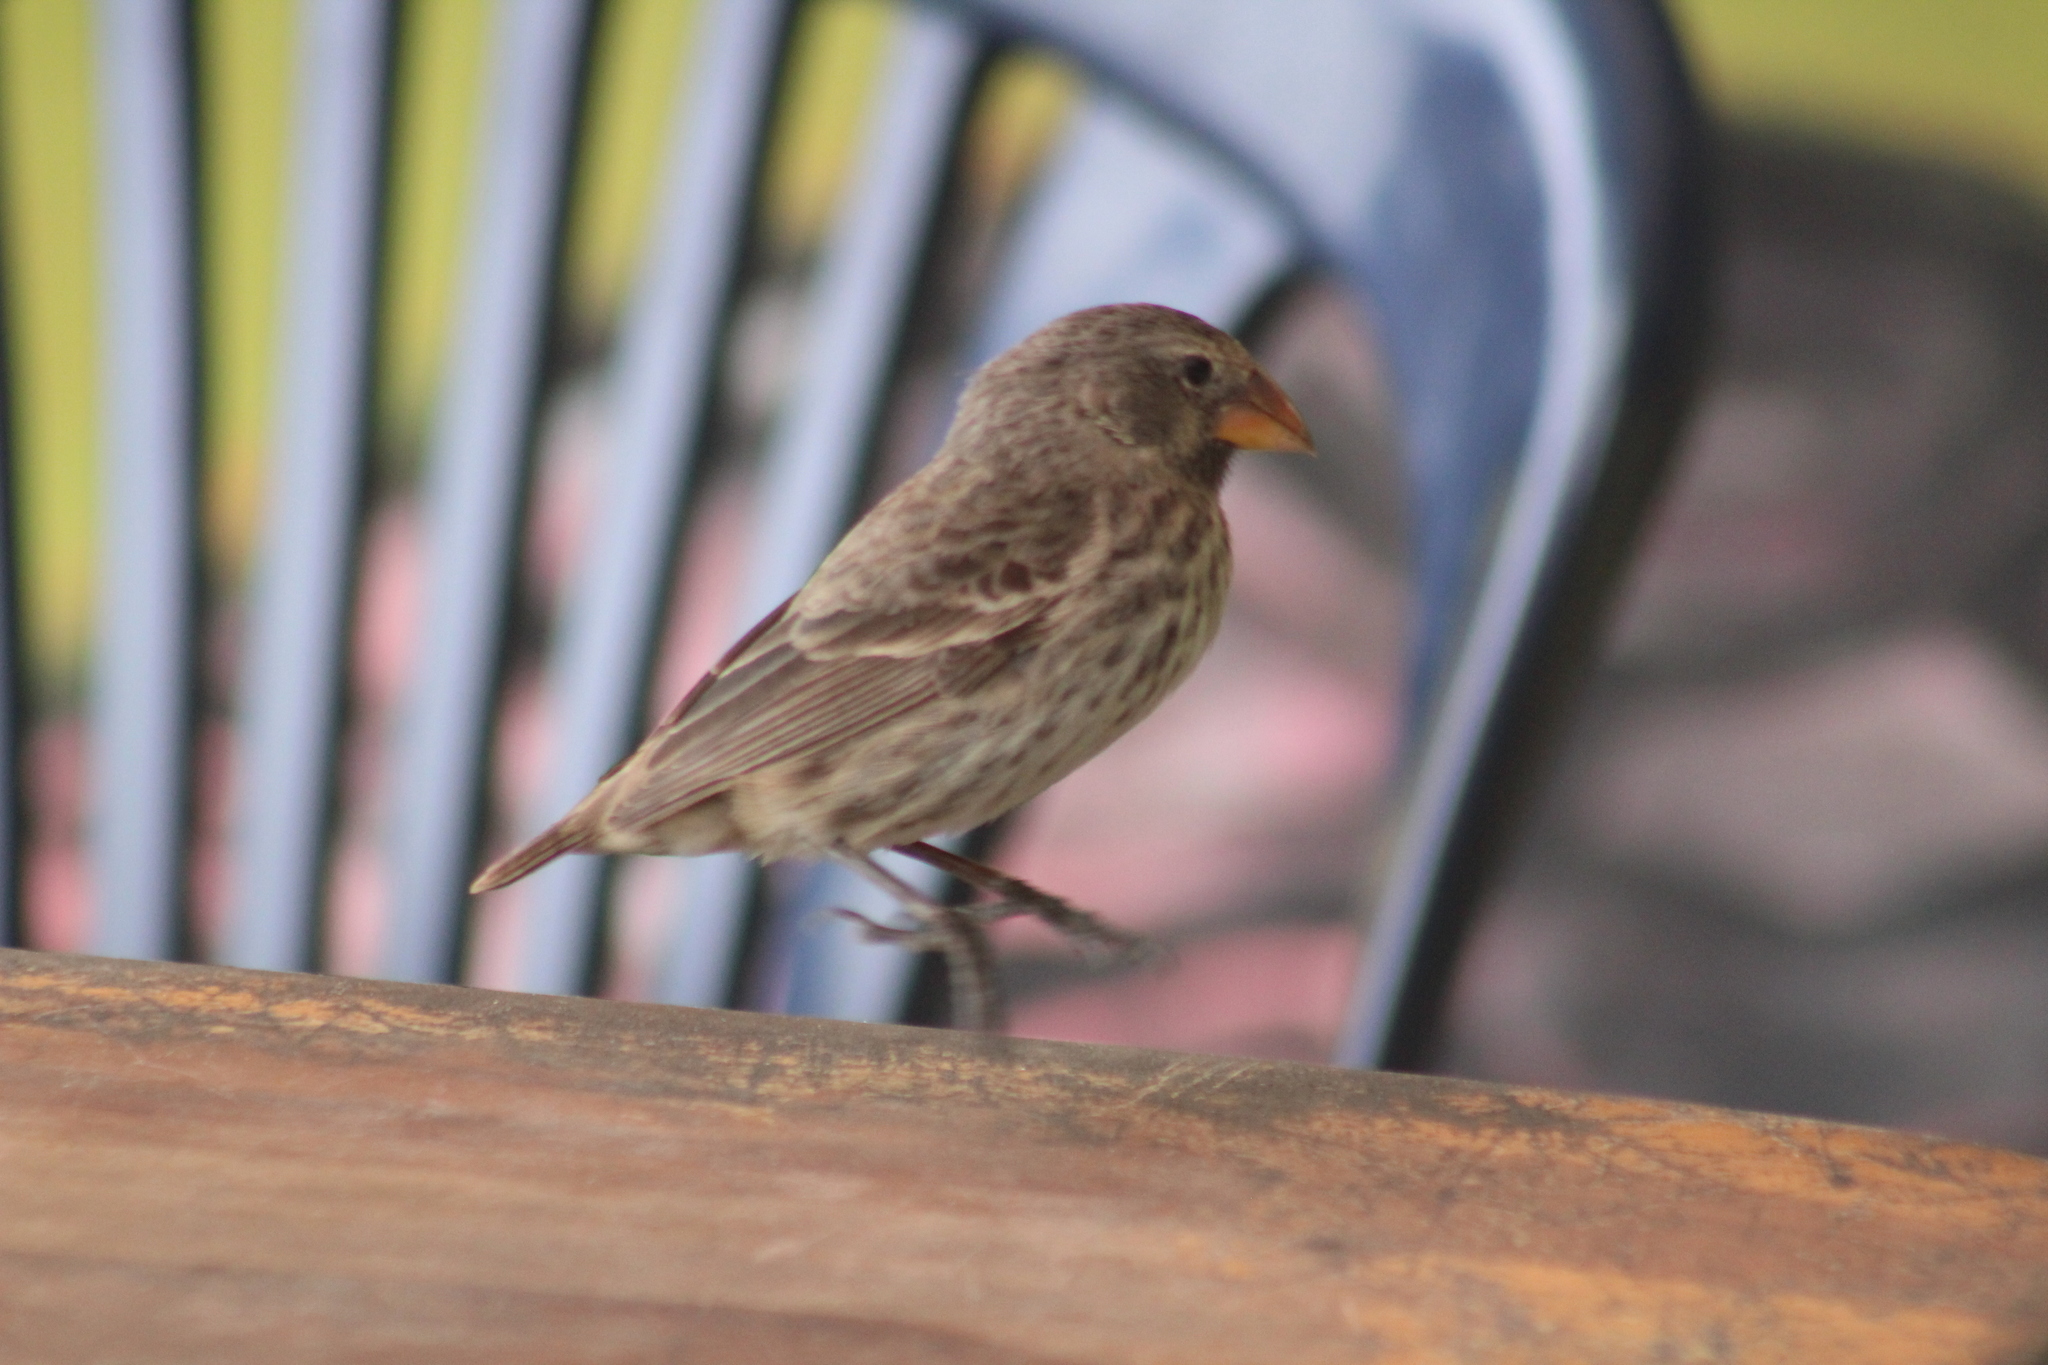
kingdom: Animalia
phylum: Chordata
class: Aves
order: Passeriformes
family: Thraupidae
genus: Geospiza
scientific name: Geospiza fortis
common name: Medium ground finch
